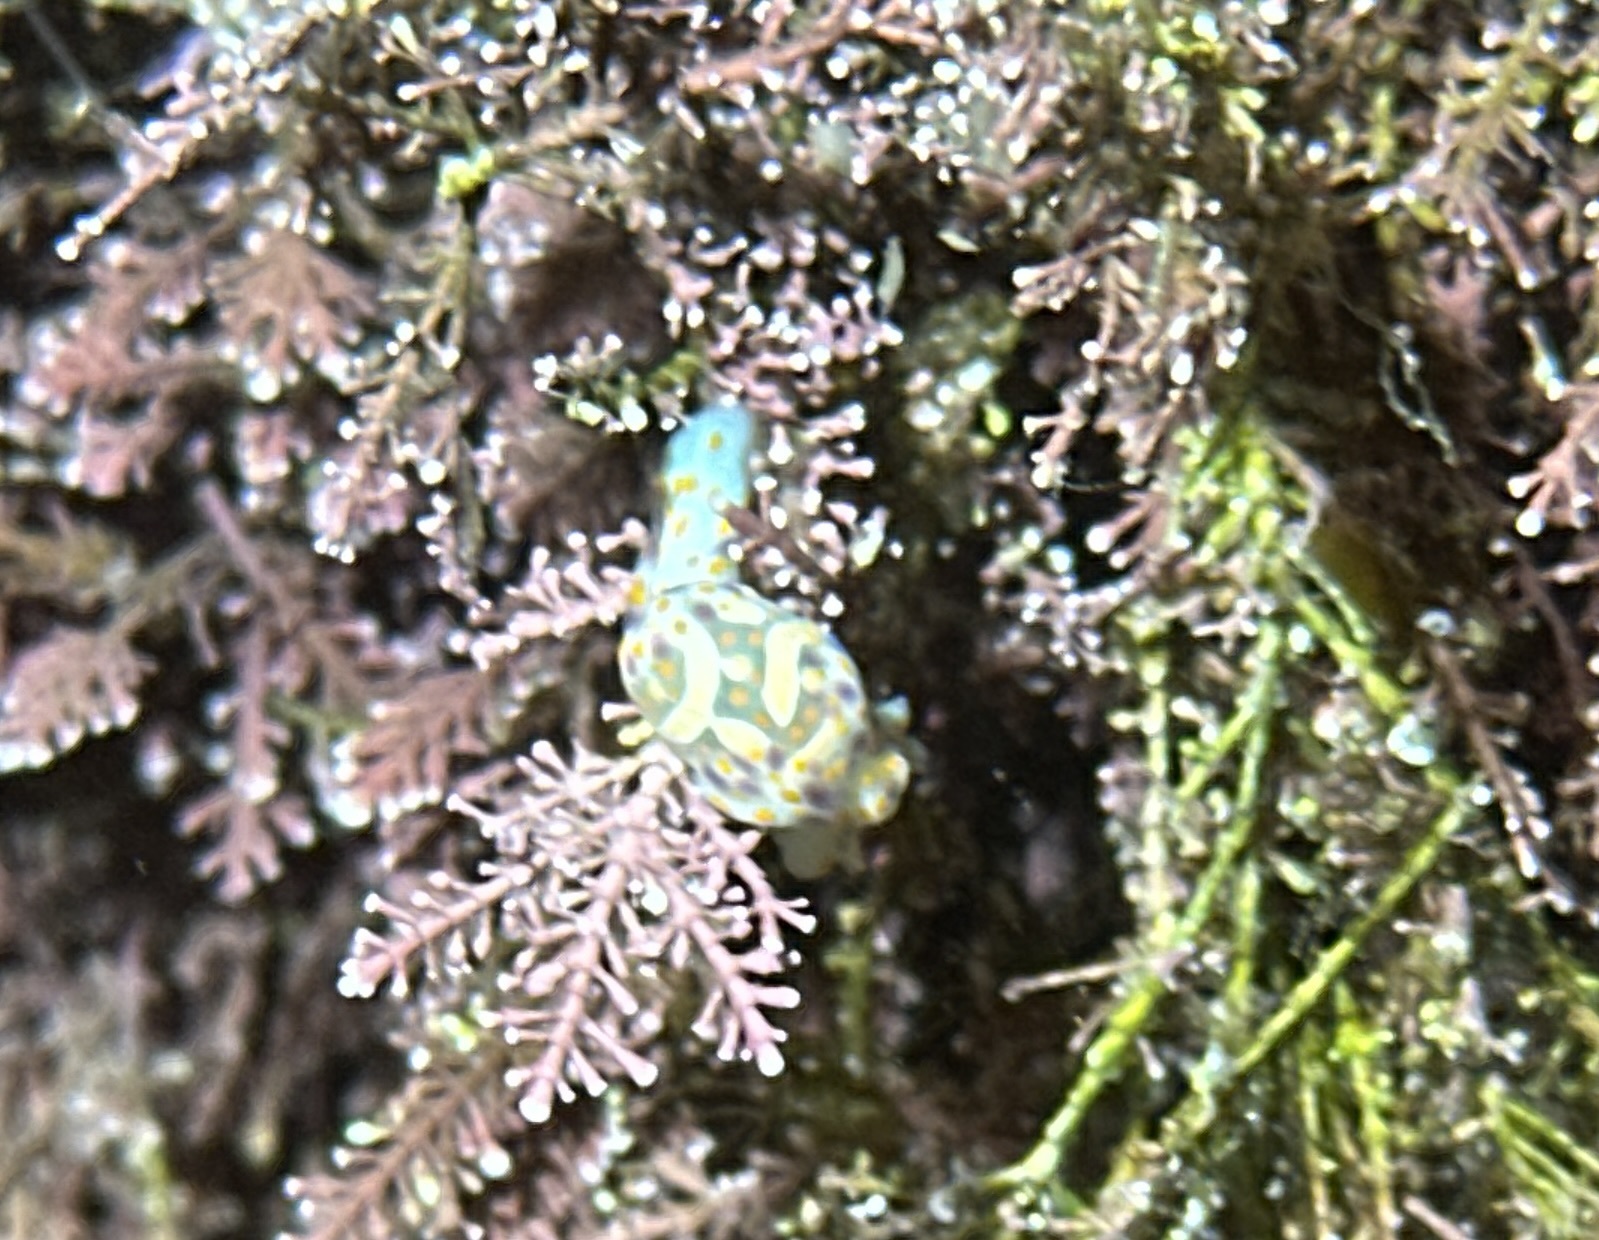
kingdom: Animalia
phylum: Mollusca
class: Gastropoda
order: Cephalaspidea
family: Haminoeidae
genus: Lamprohaminoea
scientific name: Lamprohaminoea cymbalum
